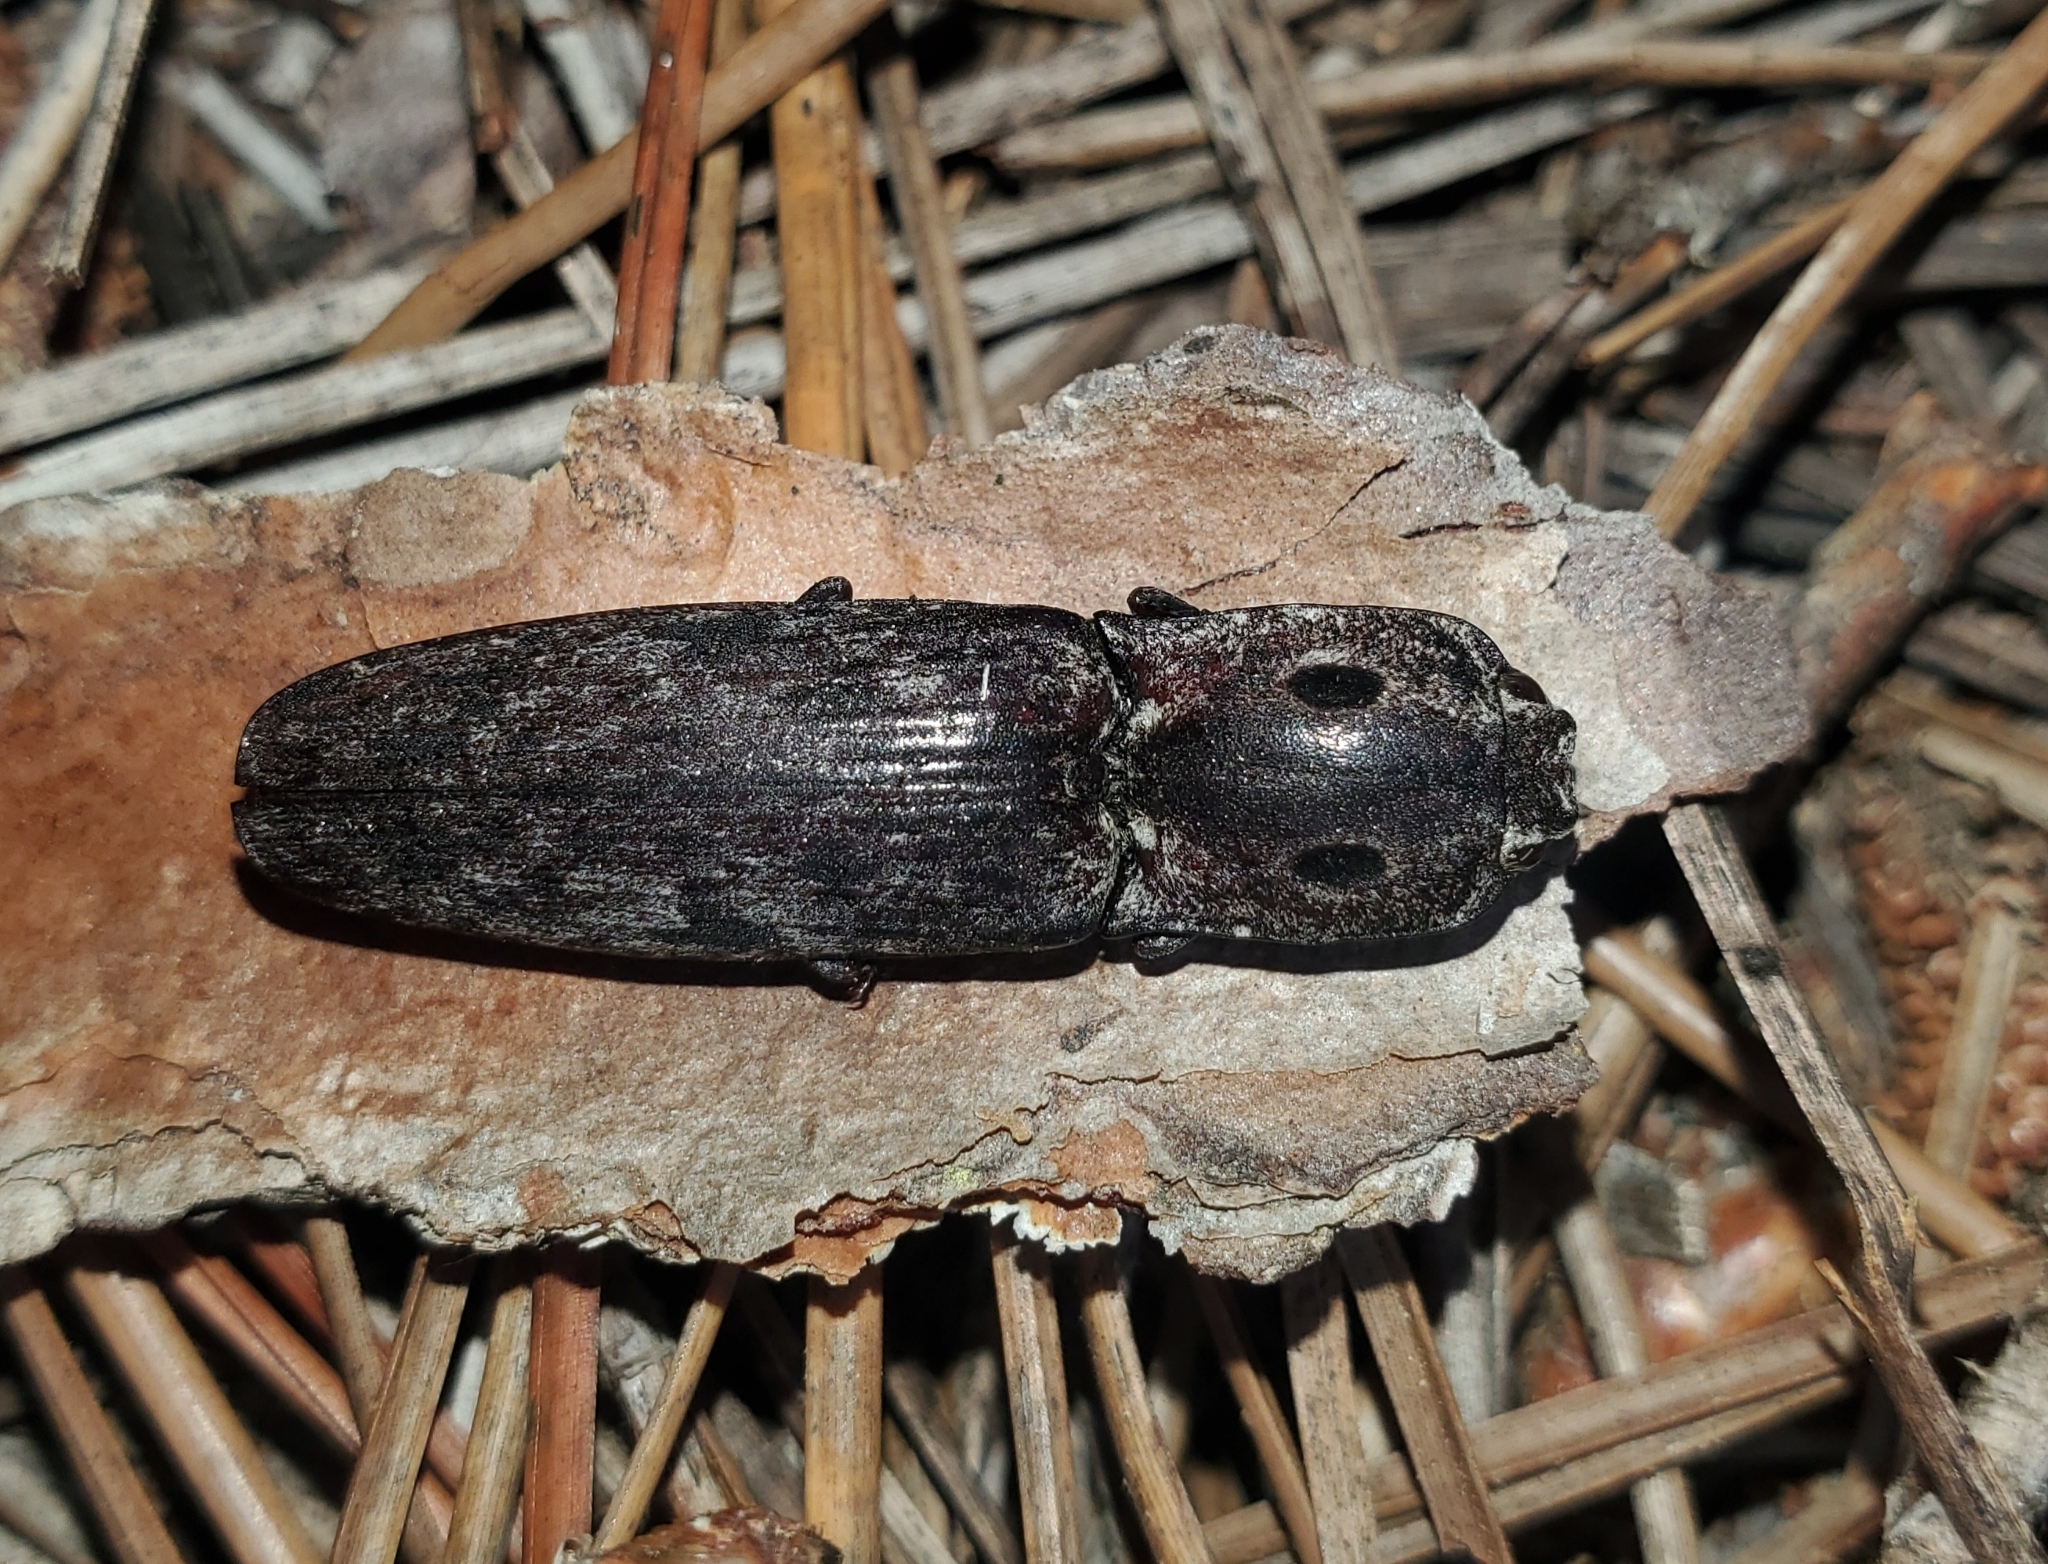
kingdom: Animalia
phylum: Arthropoda
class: Insecta
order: Coleoptera
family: Elateridae
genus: Alaus
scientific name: Alaus myops
